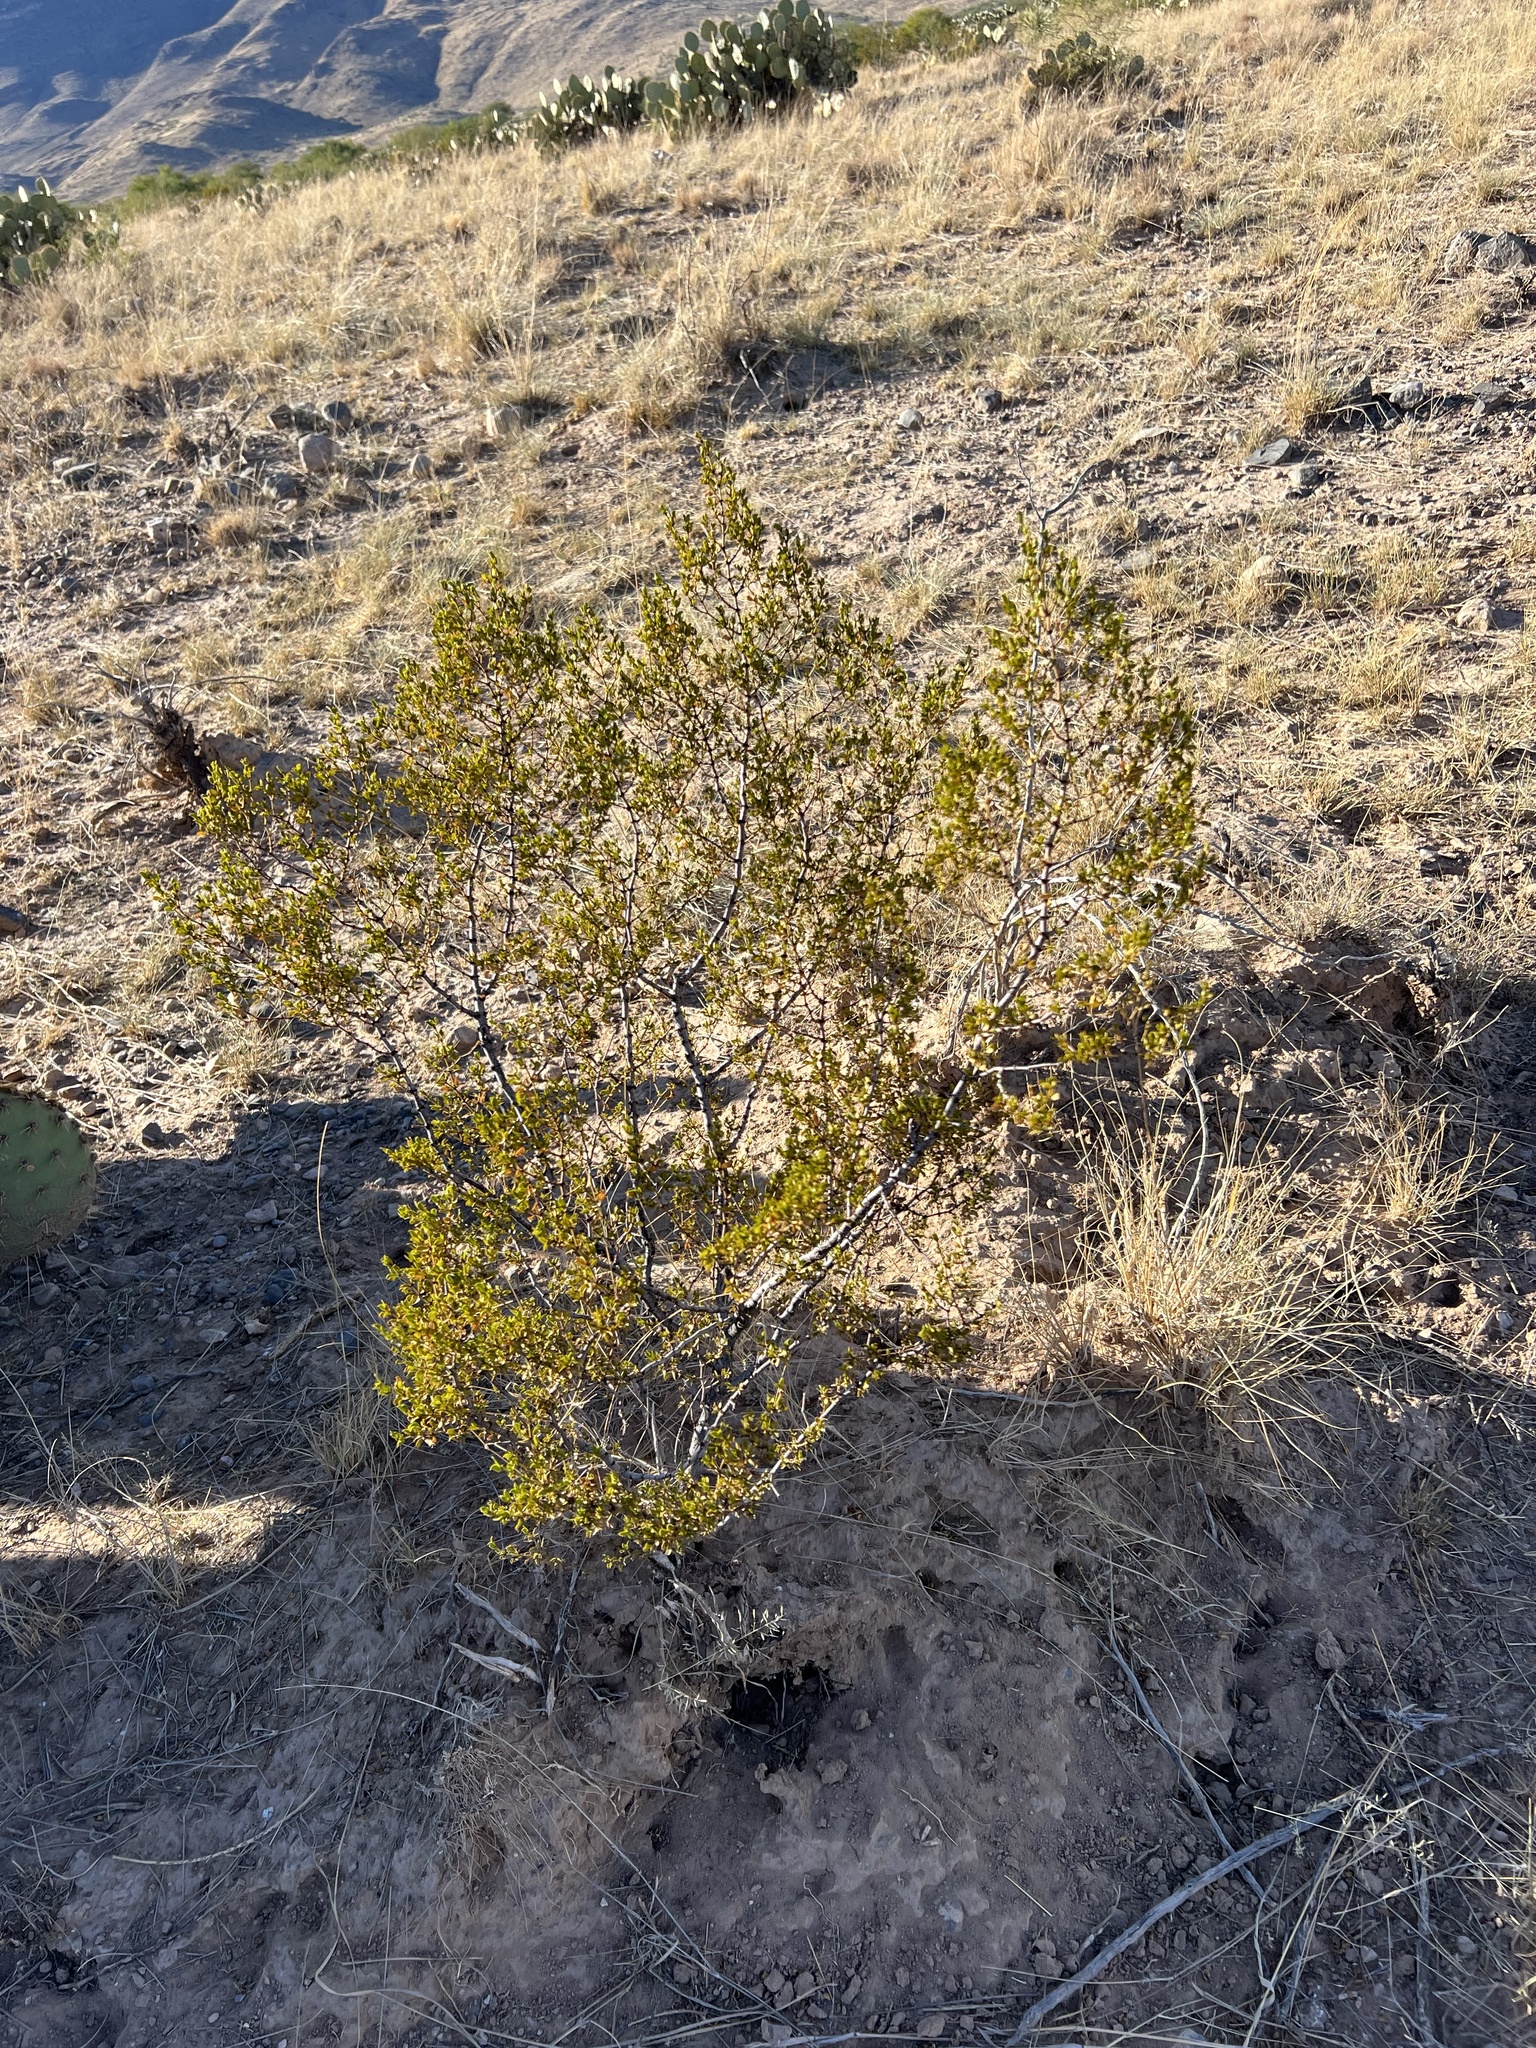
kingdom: Plantae
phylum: Tracheophyta
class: Magnoliopsida
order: Zygophyllales
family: Zygophyllaceae
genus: Larrea
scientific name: Larrea tridentata
